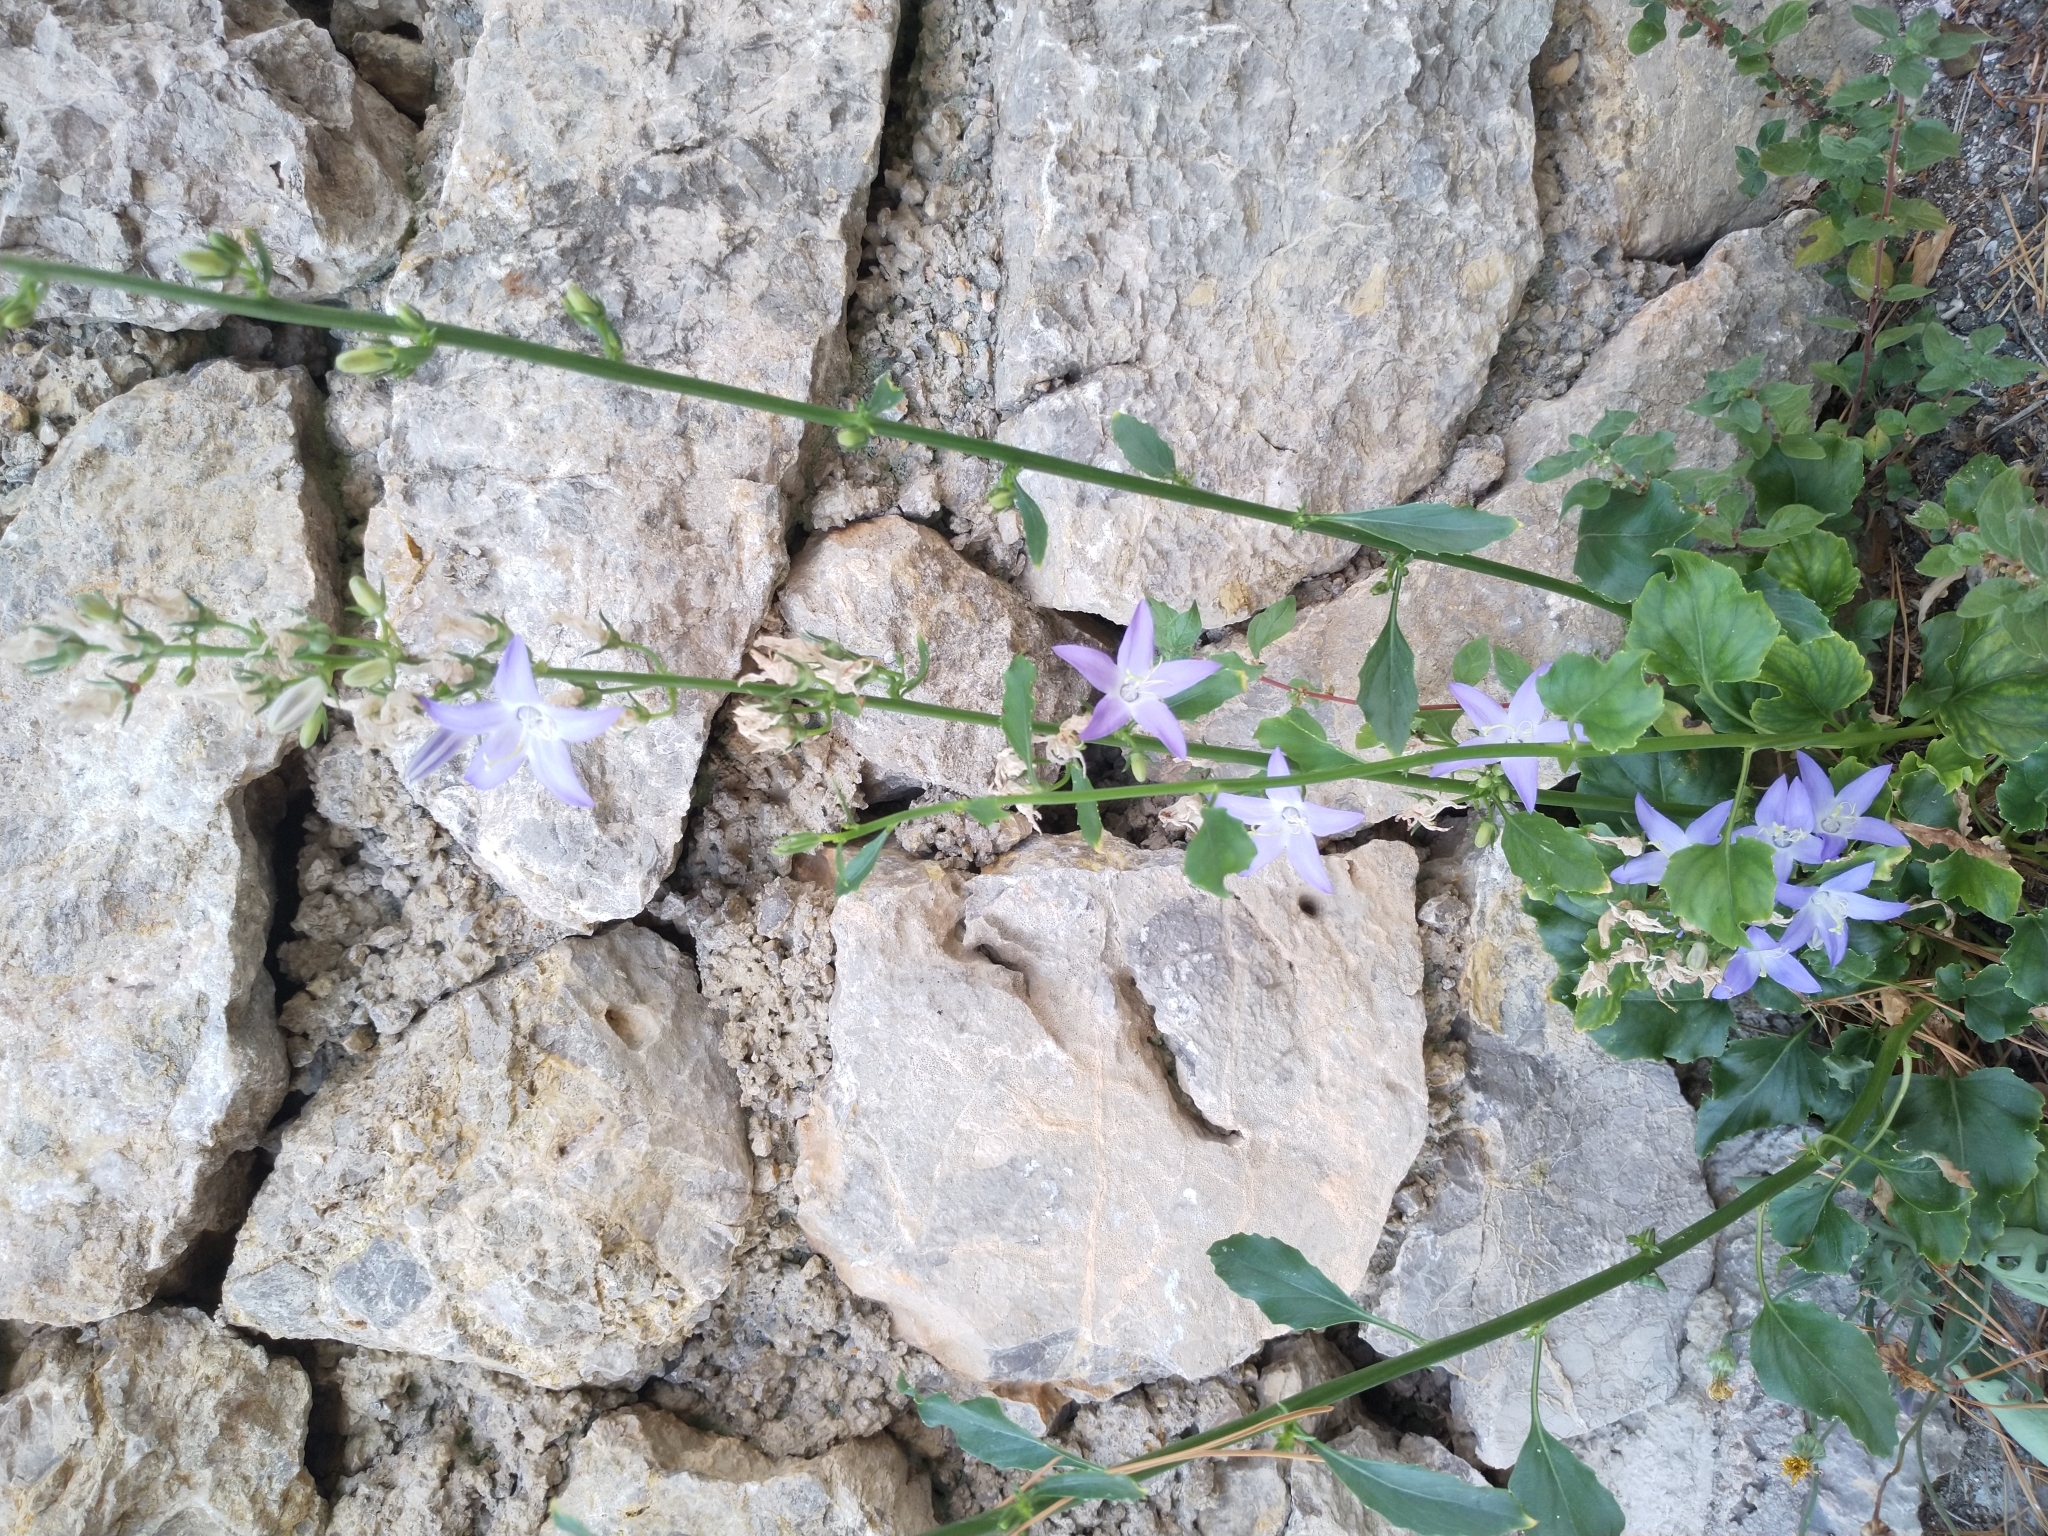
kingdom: Plantae
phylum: Tracheophyta
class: Magnoliopsida
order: Asterales
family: Campanulaceae
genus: Campanula
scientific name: Campanula pyramidalis
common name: Chimney bellflower
